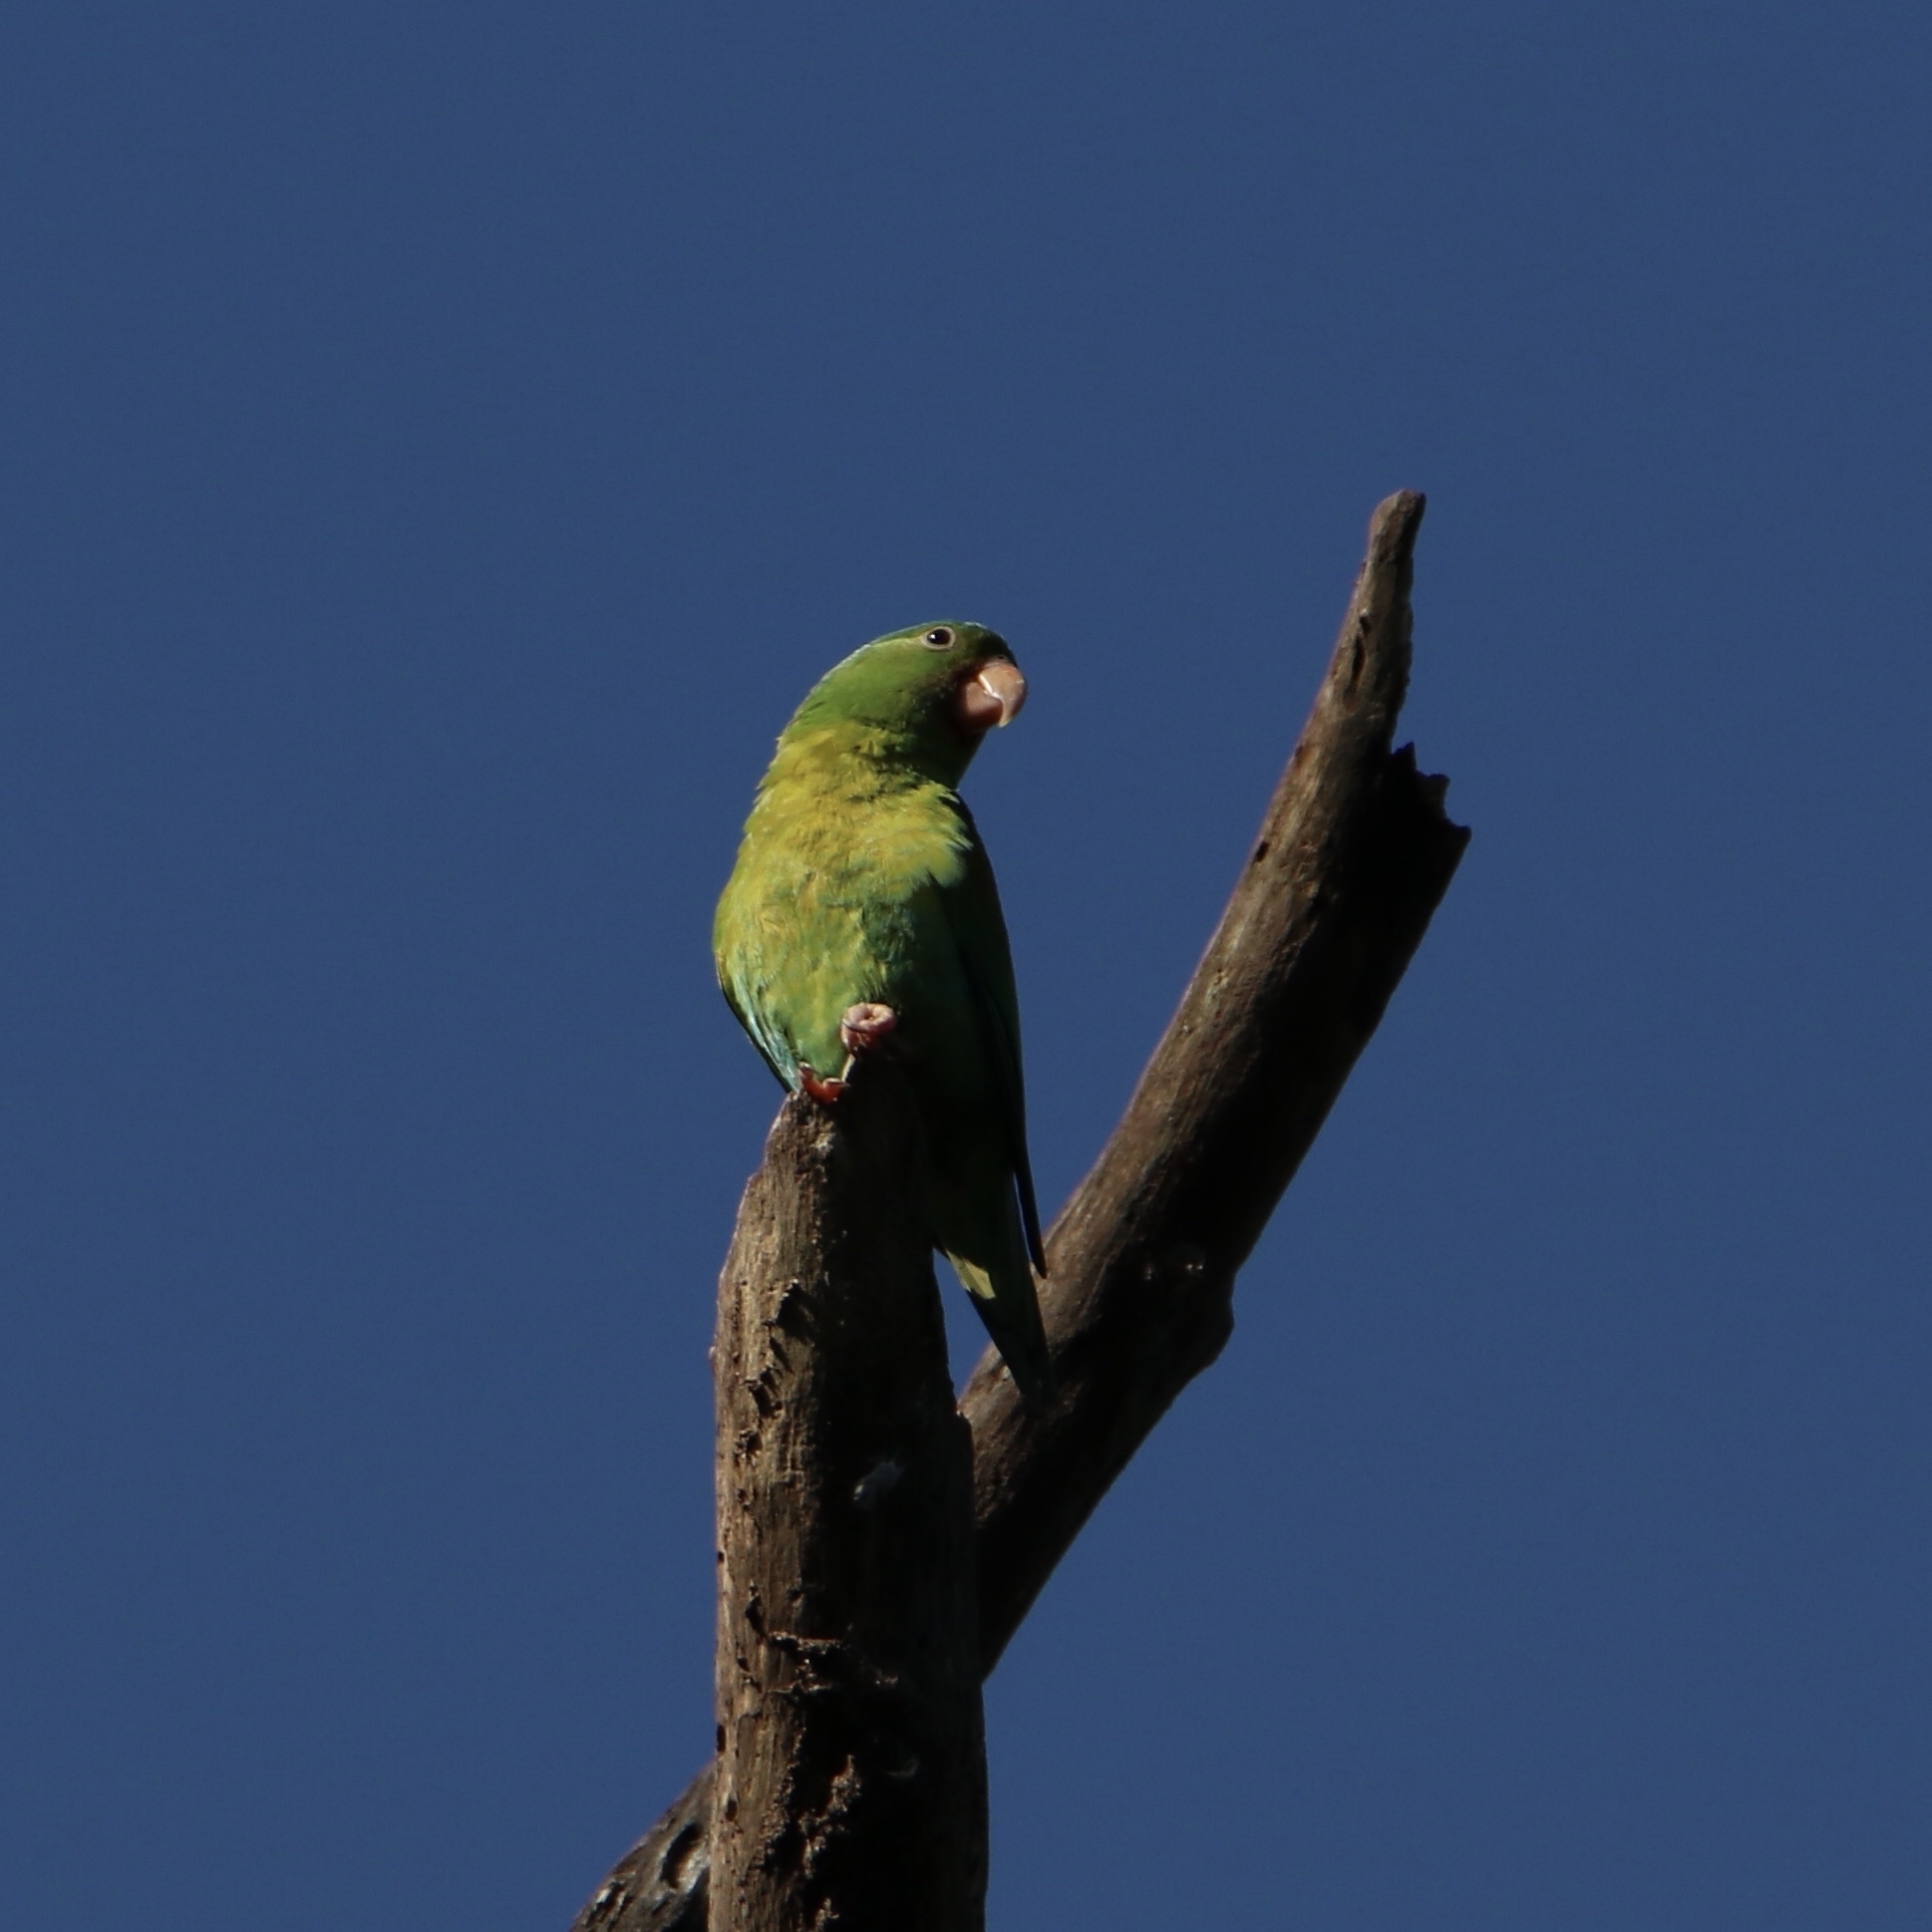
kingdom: Animalia
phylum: Chordata
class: Aves
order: Psittaciformes
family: Psittacidae
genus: Brotogeris
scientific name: Brotogeris jugularis
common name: Orange-chinned parakeet
